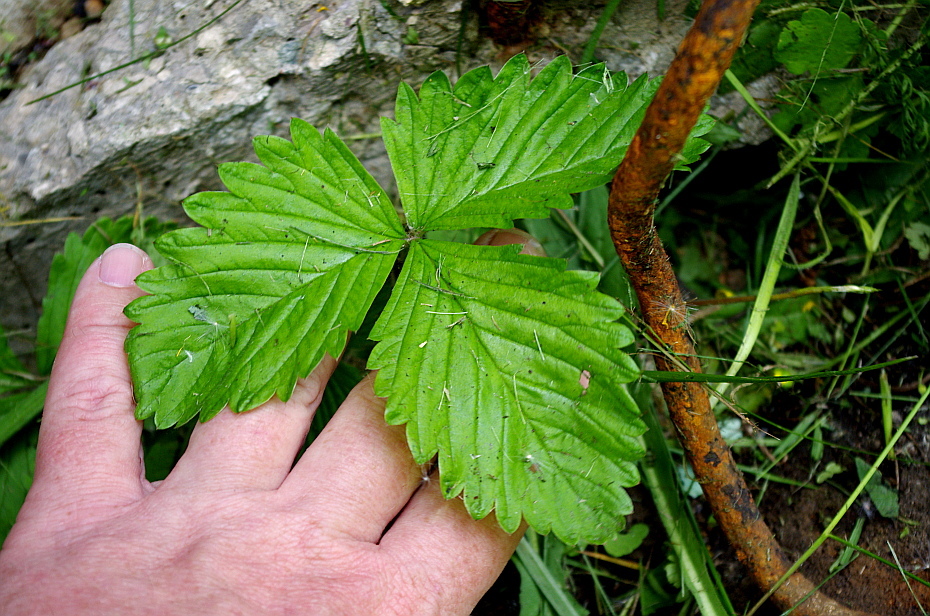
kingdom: Plantae
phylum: Tracheophyta
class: Magnoliopsida
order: Rosales
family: Rosaceae
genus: Fragaria
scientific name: Fragaria vesca
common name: Wild strawberry
